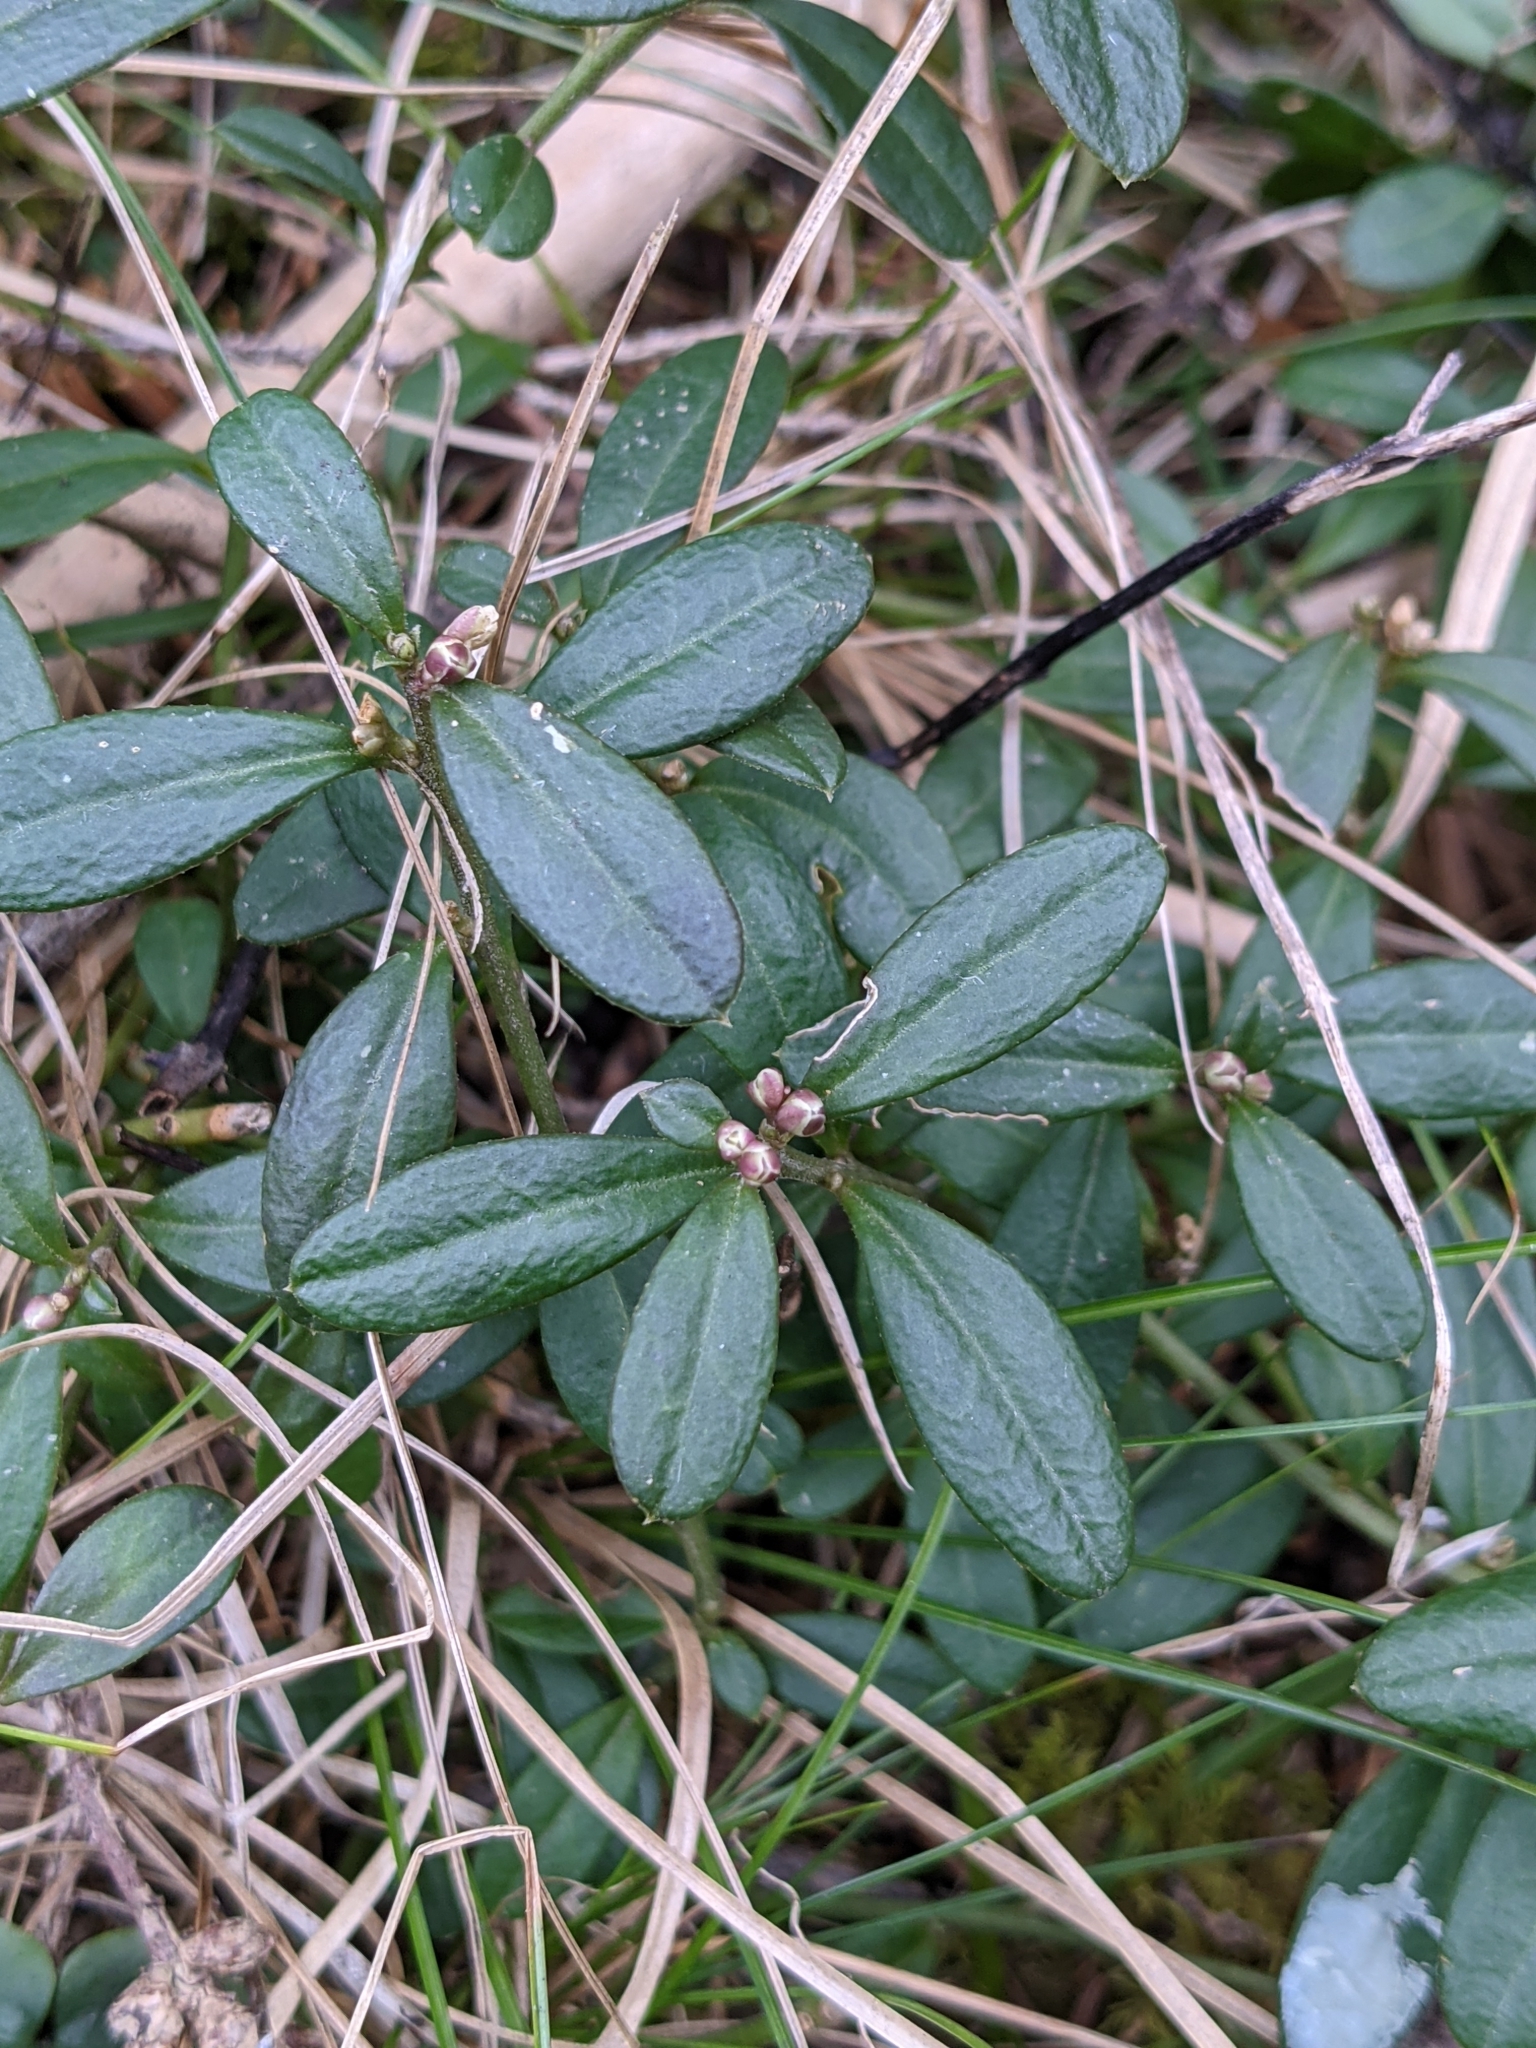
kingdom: Plantae
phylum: Tracheophyta
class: Magnoliopsida
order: Fabales
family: Polygalaceae
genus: Polygaloides
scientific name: Polygaloides chamaebuxus
